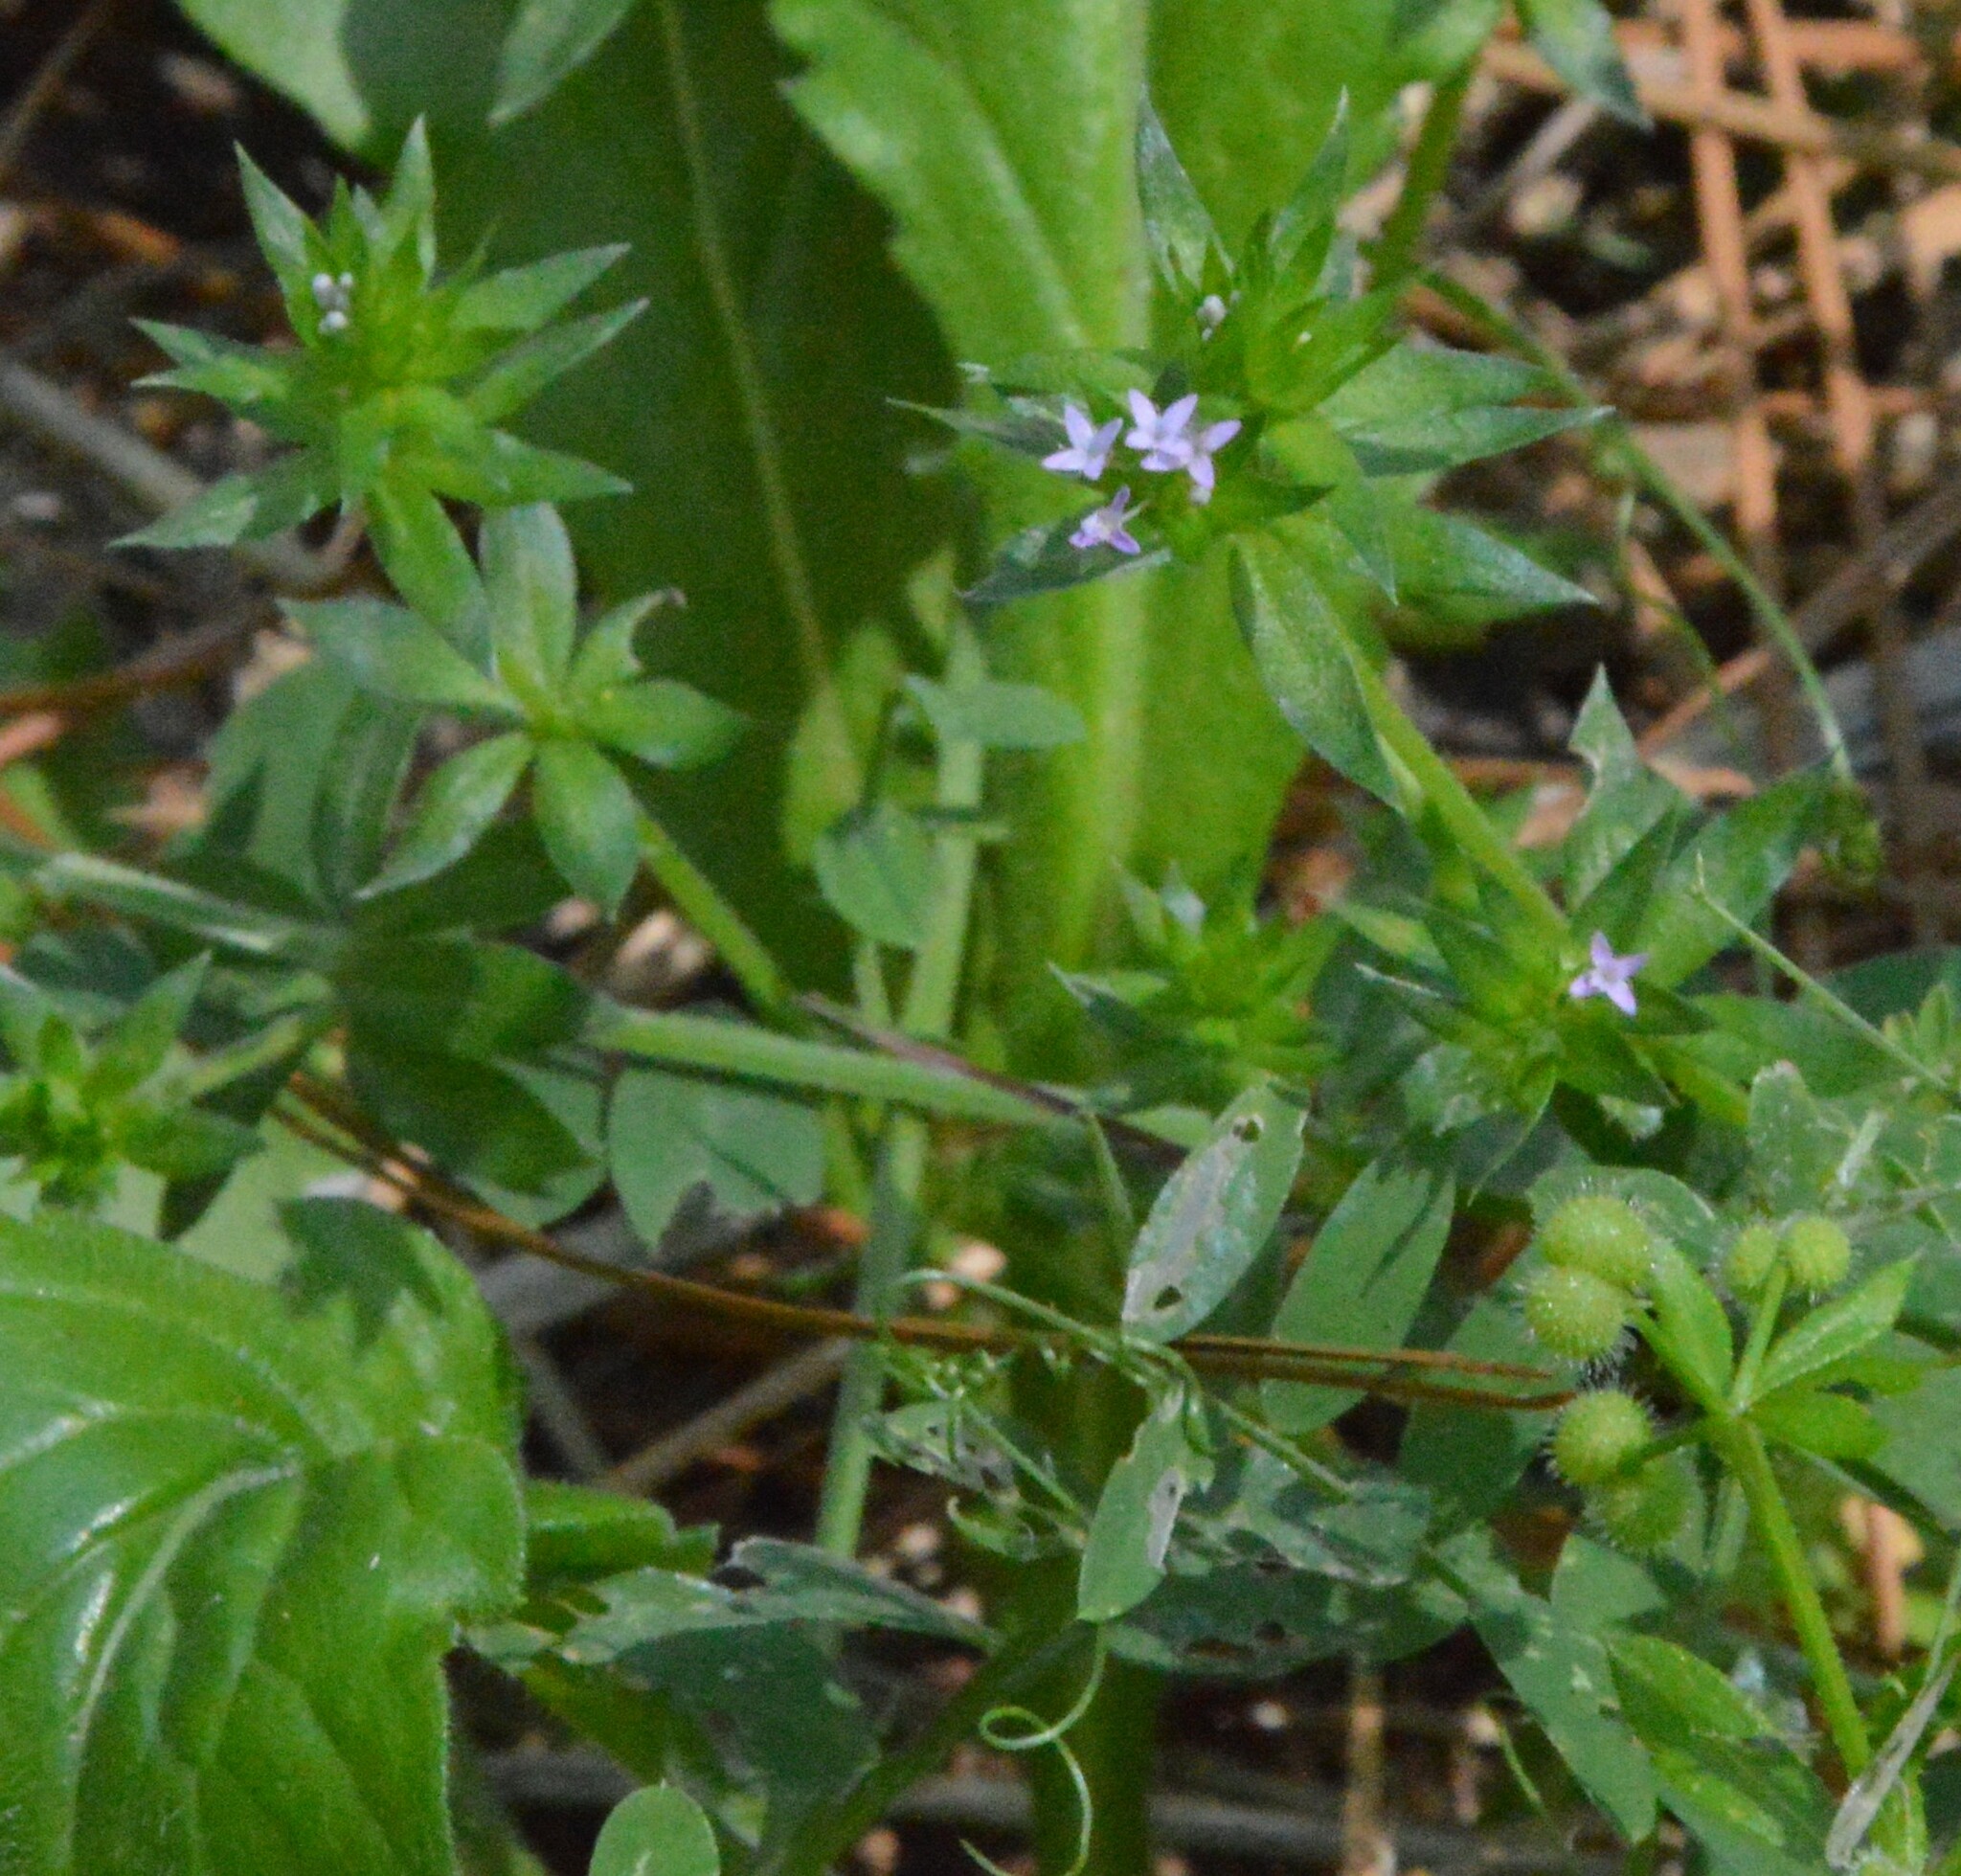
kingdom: Plantae
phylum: Tracheophyta
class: Magnoliopsida
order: Gentianales
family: Rubiaceae
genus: Sherardia
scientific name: Sherardia arvensis
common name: Field madder
